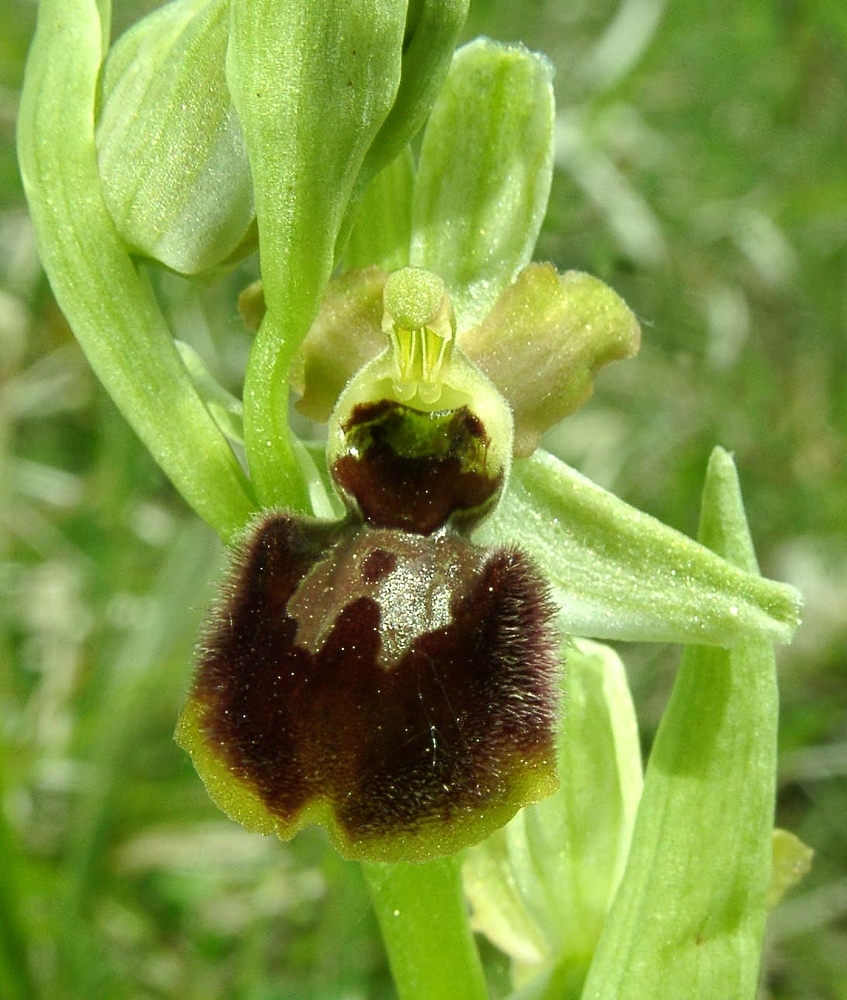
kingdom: Plantae
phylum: Tracheophyta
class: Liliopsida
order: Asparagales
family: Orchidaceae
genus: Ophrys
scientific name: Ophrys sphegodes
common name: Early spider-orchid
